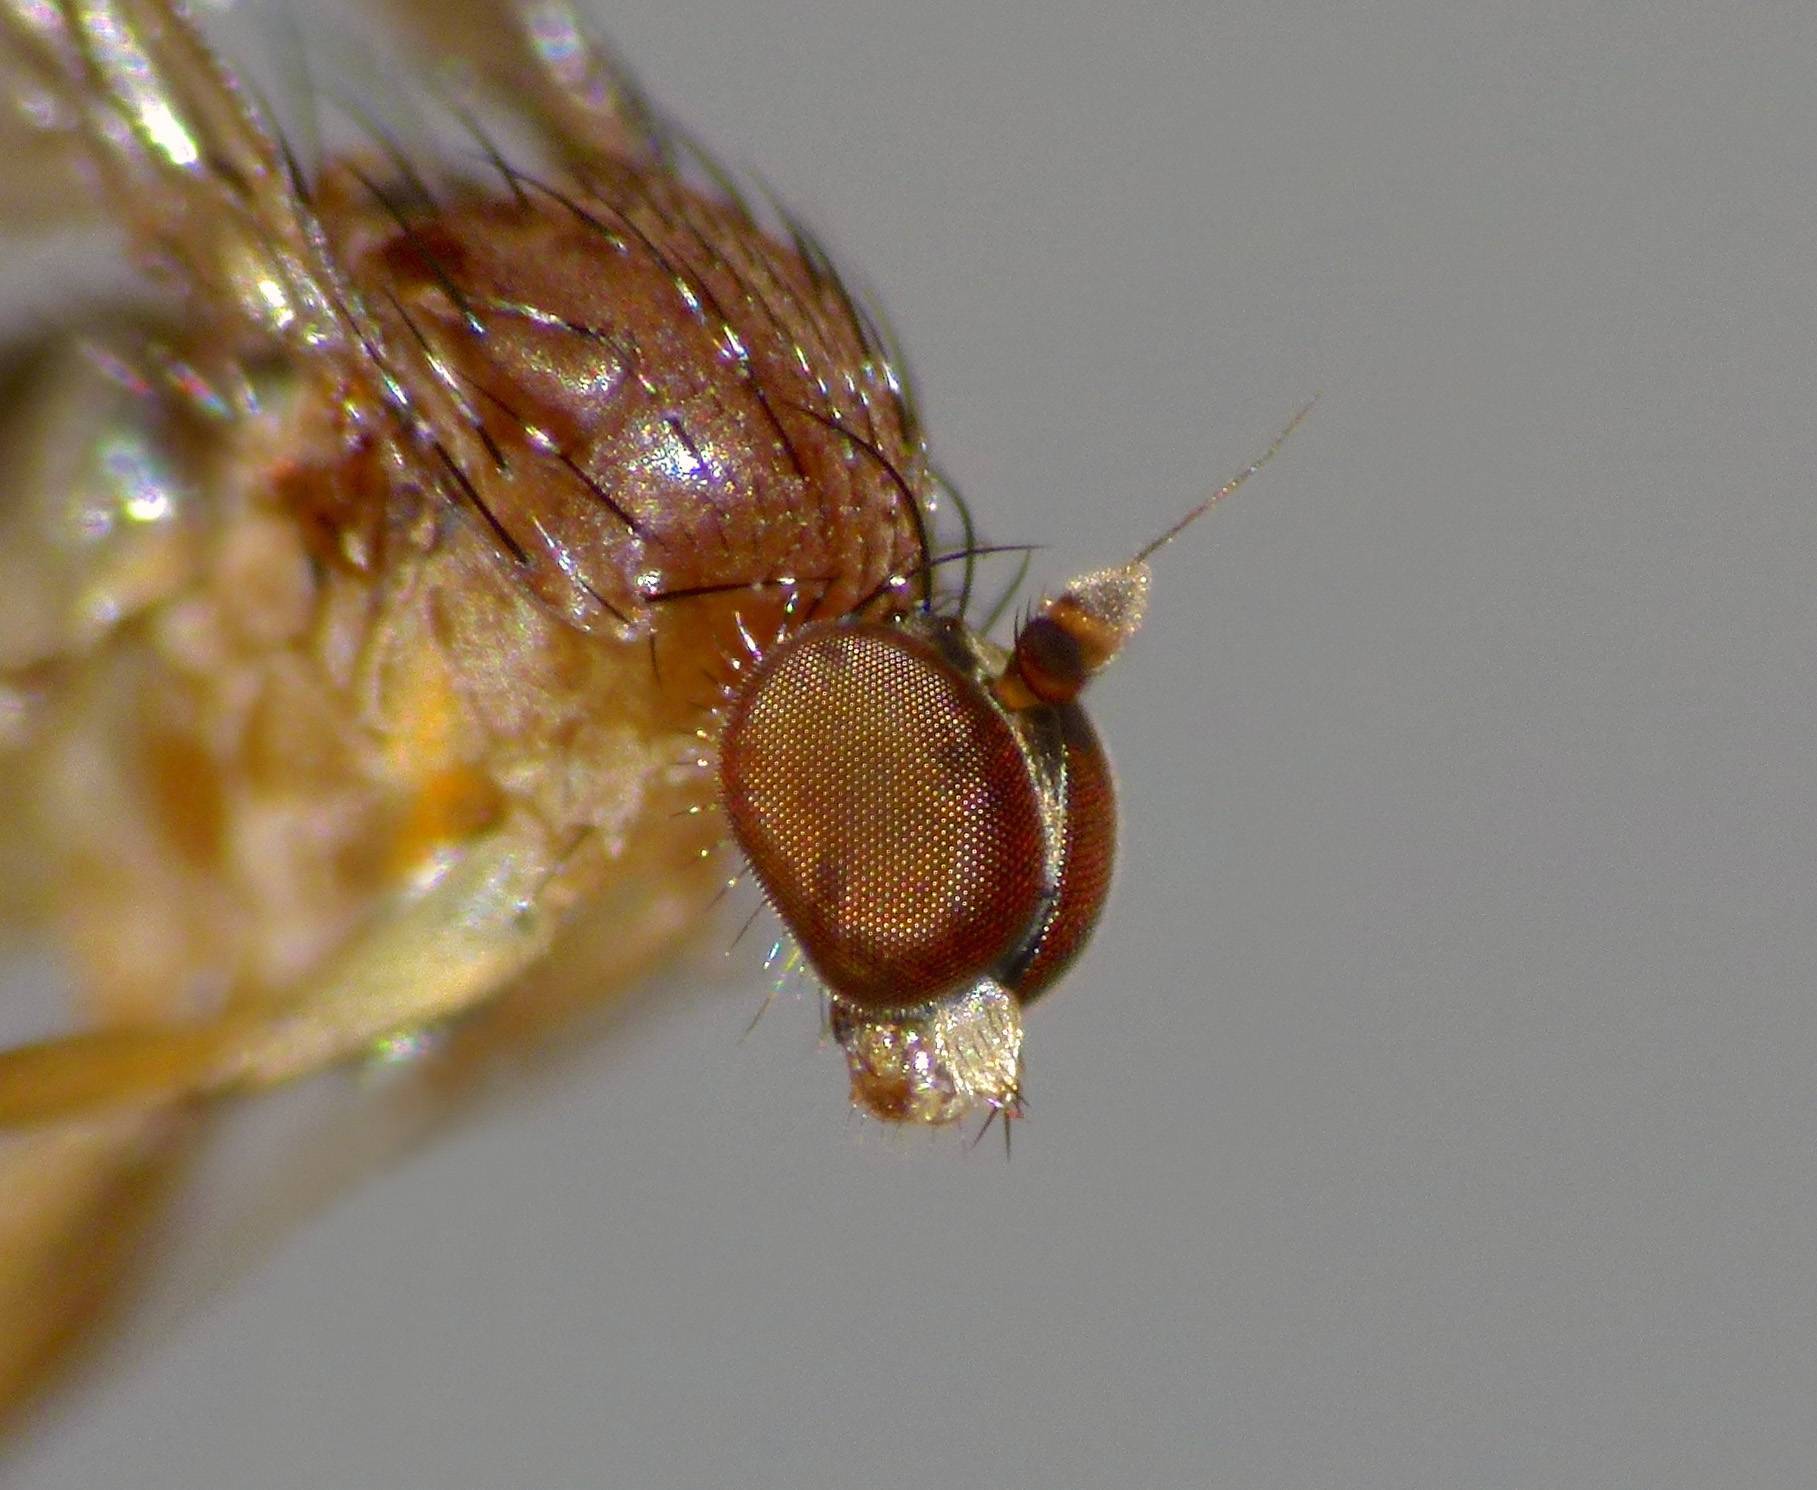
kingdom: Animalia
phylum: Arthropoda
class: Insecta
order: Diptera
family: Dolichopodidae
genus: Australachalcus
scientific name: Australachalcus
